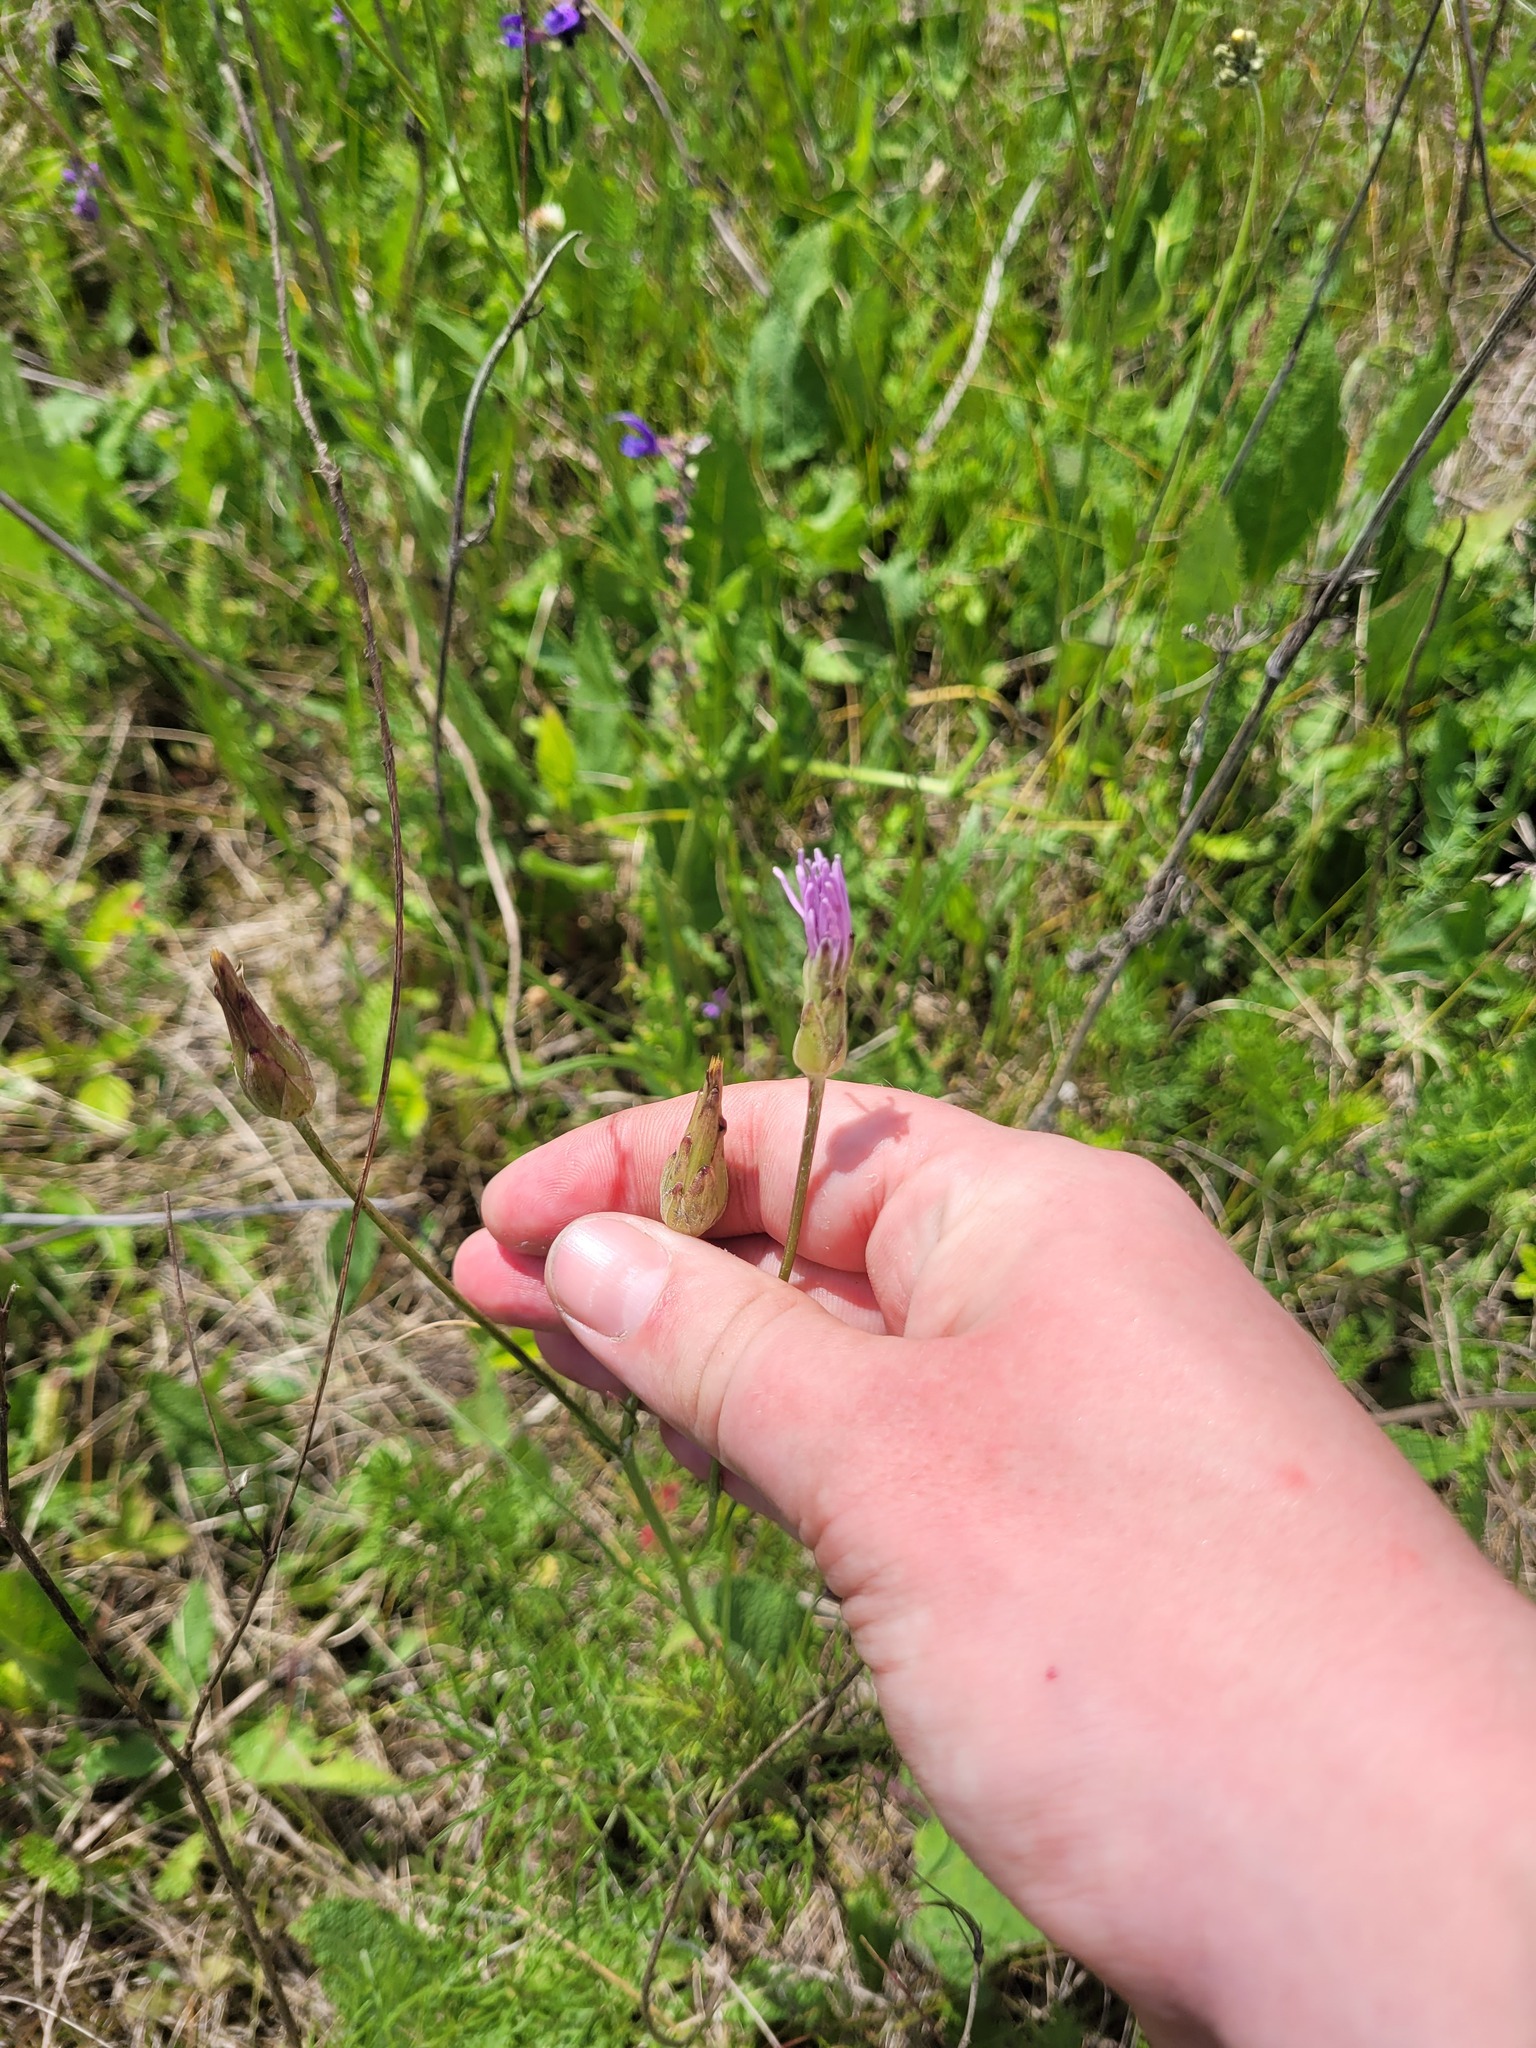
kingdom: Plantae
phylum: Tracheophyta
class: Magnoliopsida
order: Asterales
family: Asteraceae
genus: Scorzonera
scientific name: Scorzonera purpurea
